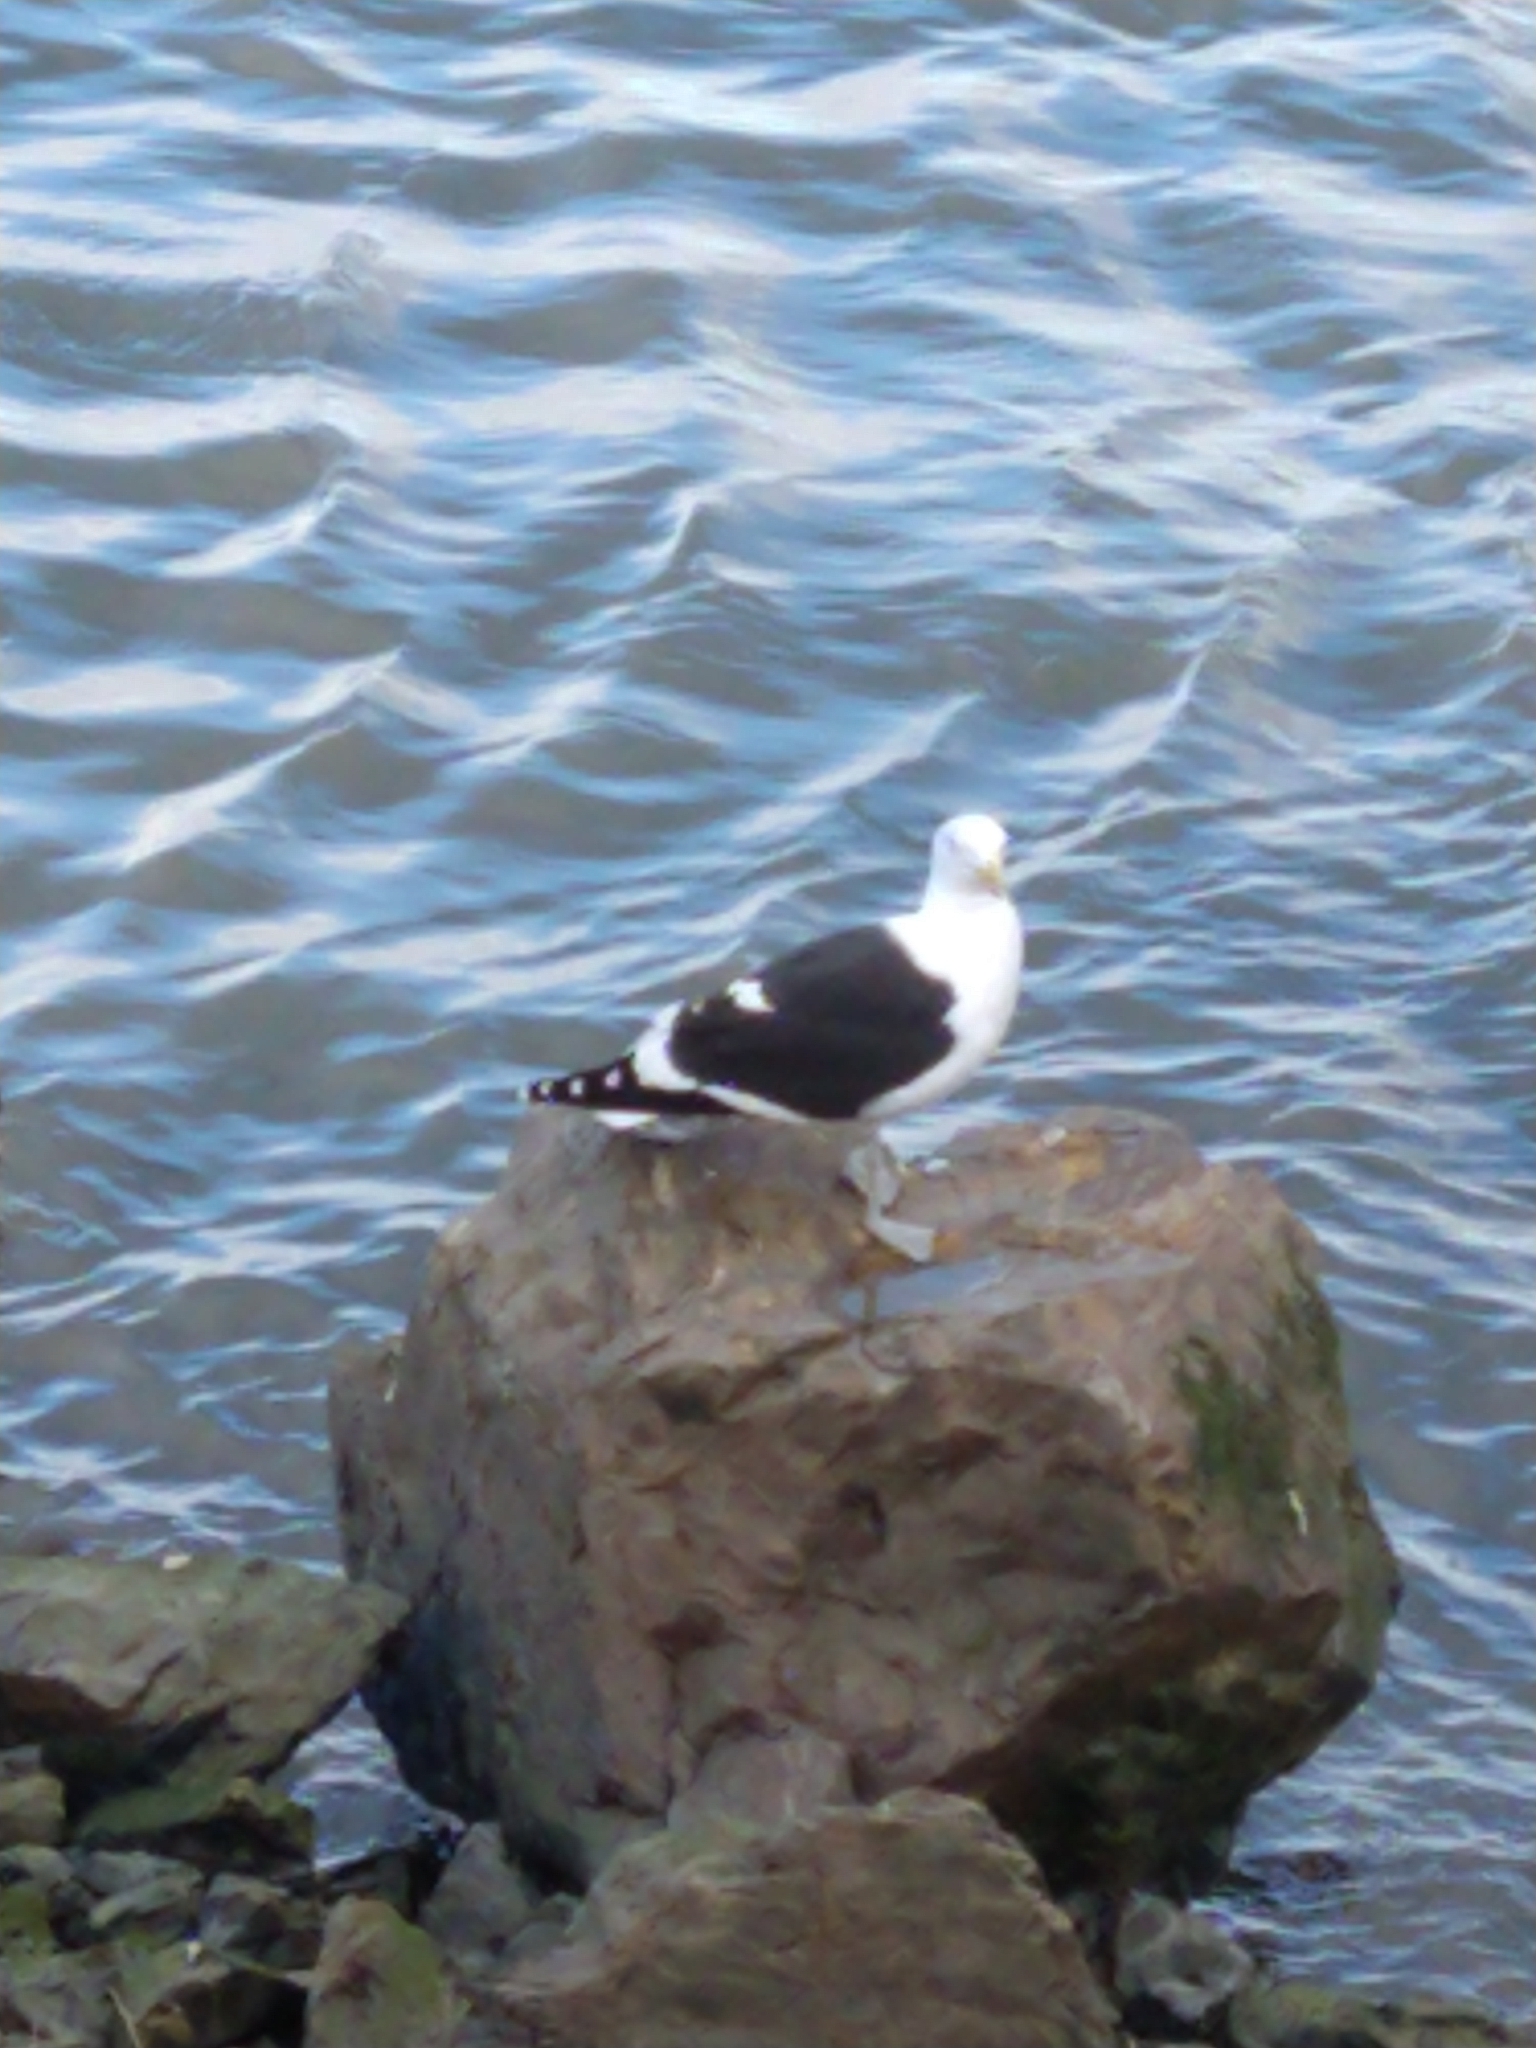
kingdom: Animalia
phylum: Chordata
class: Aves
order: Charadriiformes
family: Laridae
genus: Larus
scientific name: Larus dominicanus
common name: Kelp gull
